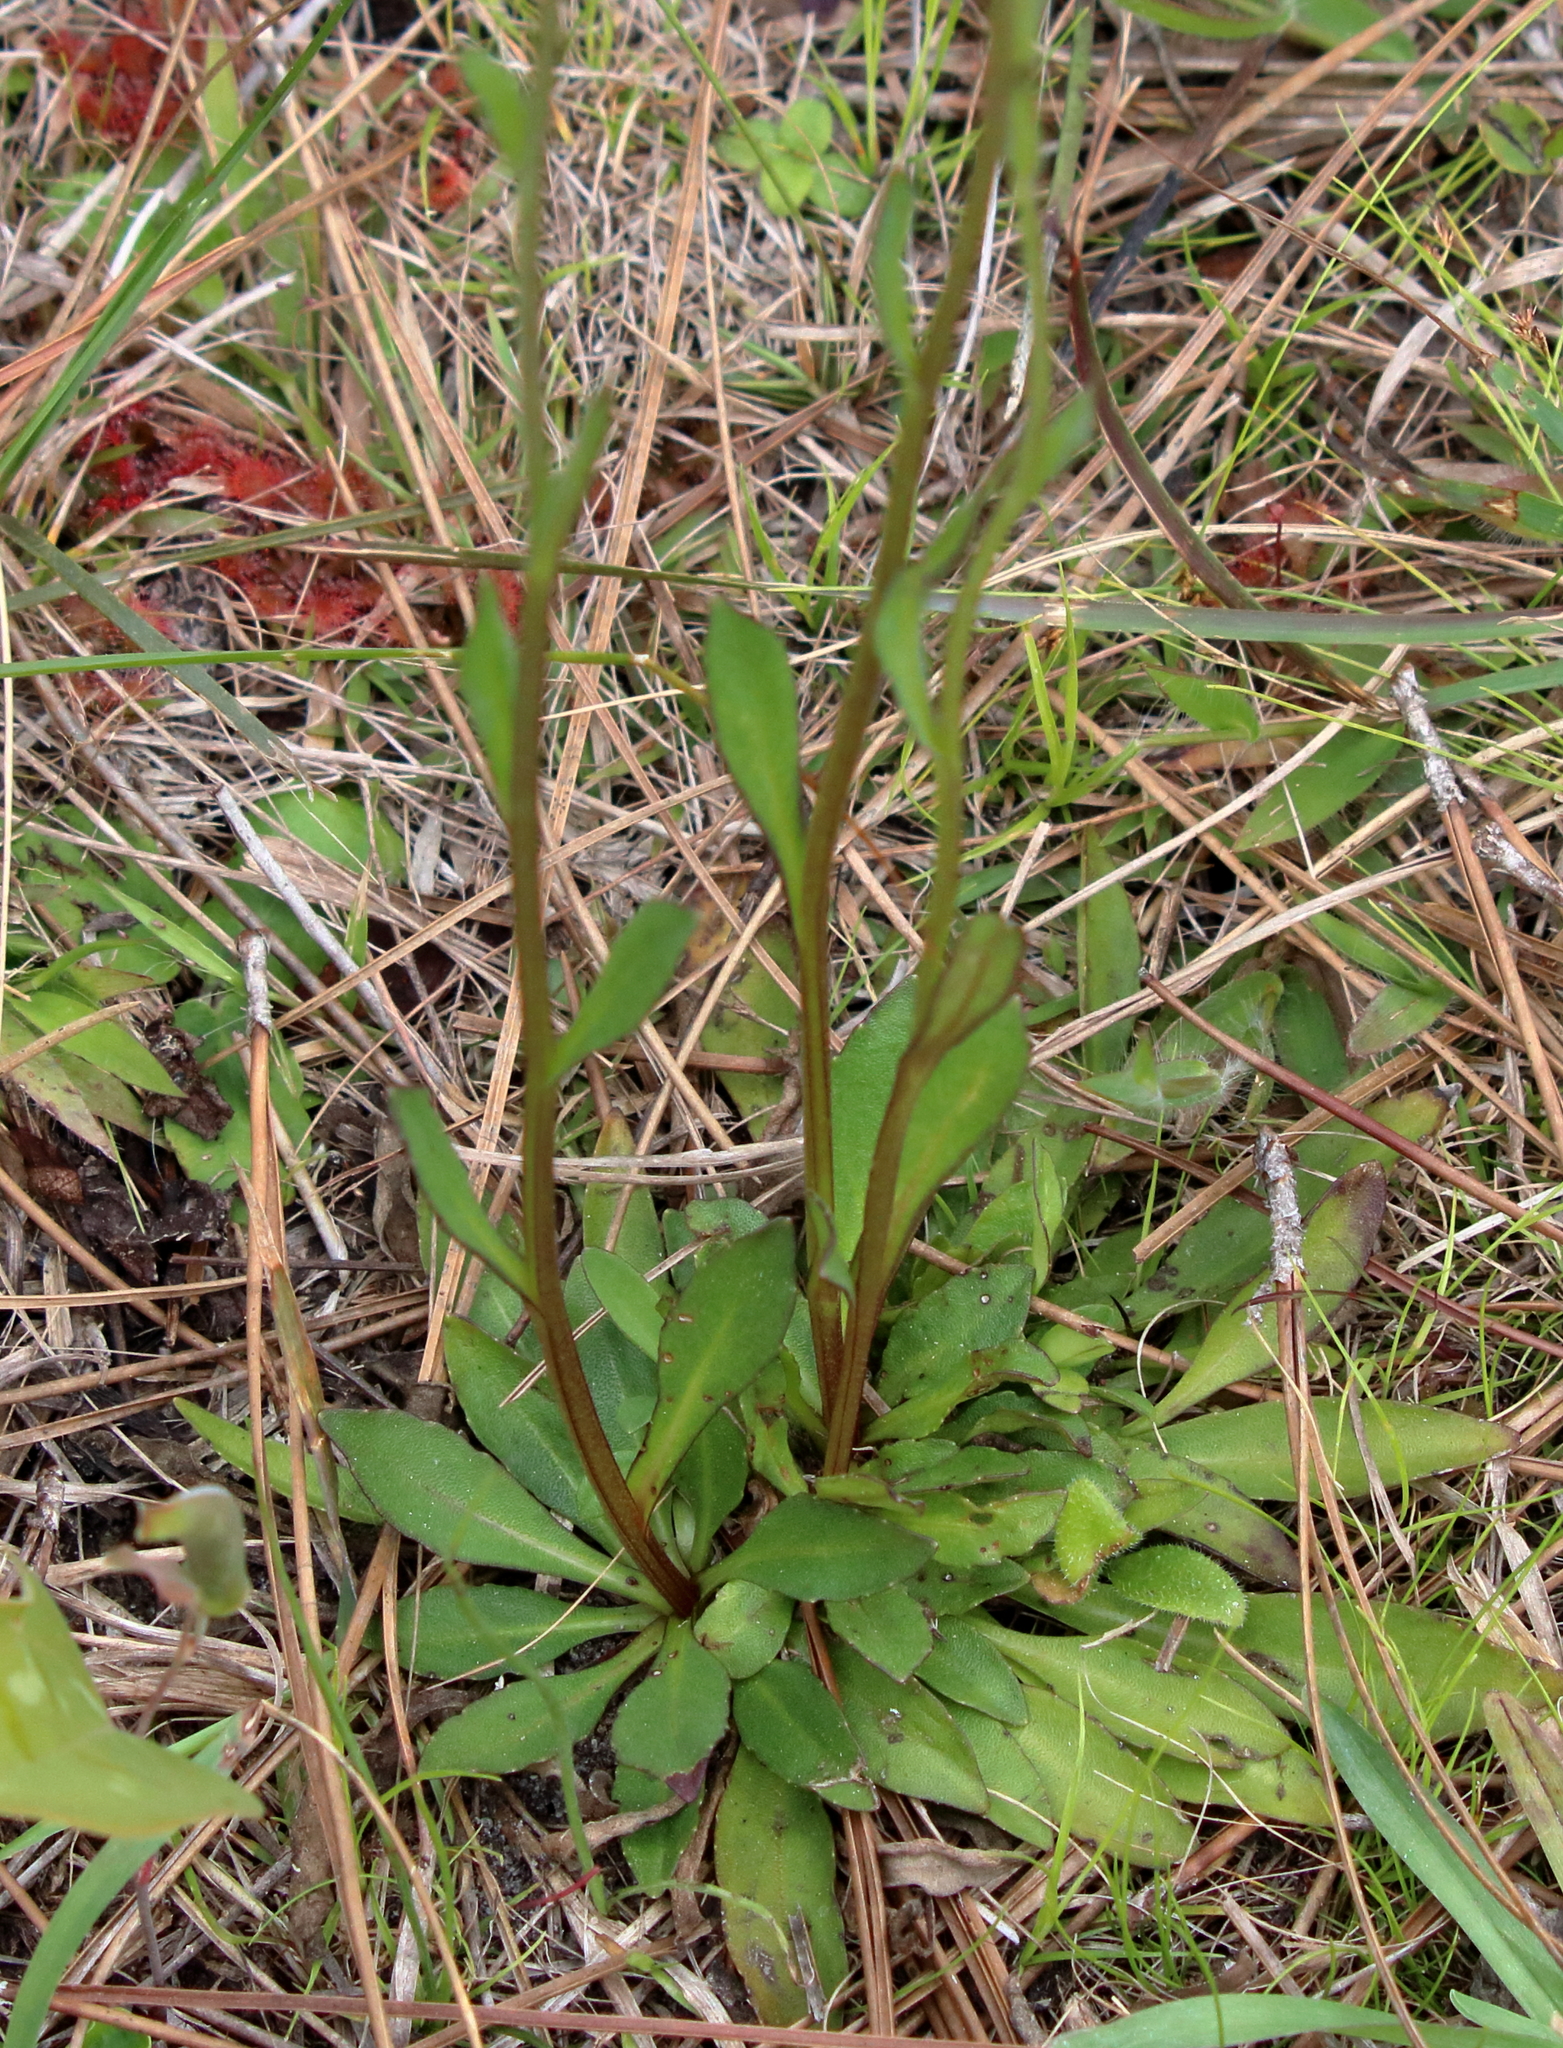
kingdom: Plantae
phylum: Tracheophyta
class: Magnoliopsida
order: Asterales
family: Asteraceae
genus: Helenium
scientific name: Helenium brevifolium
